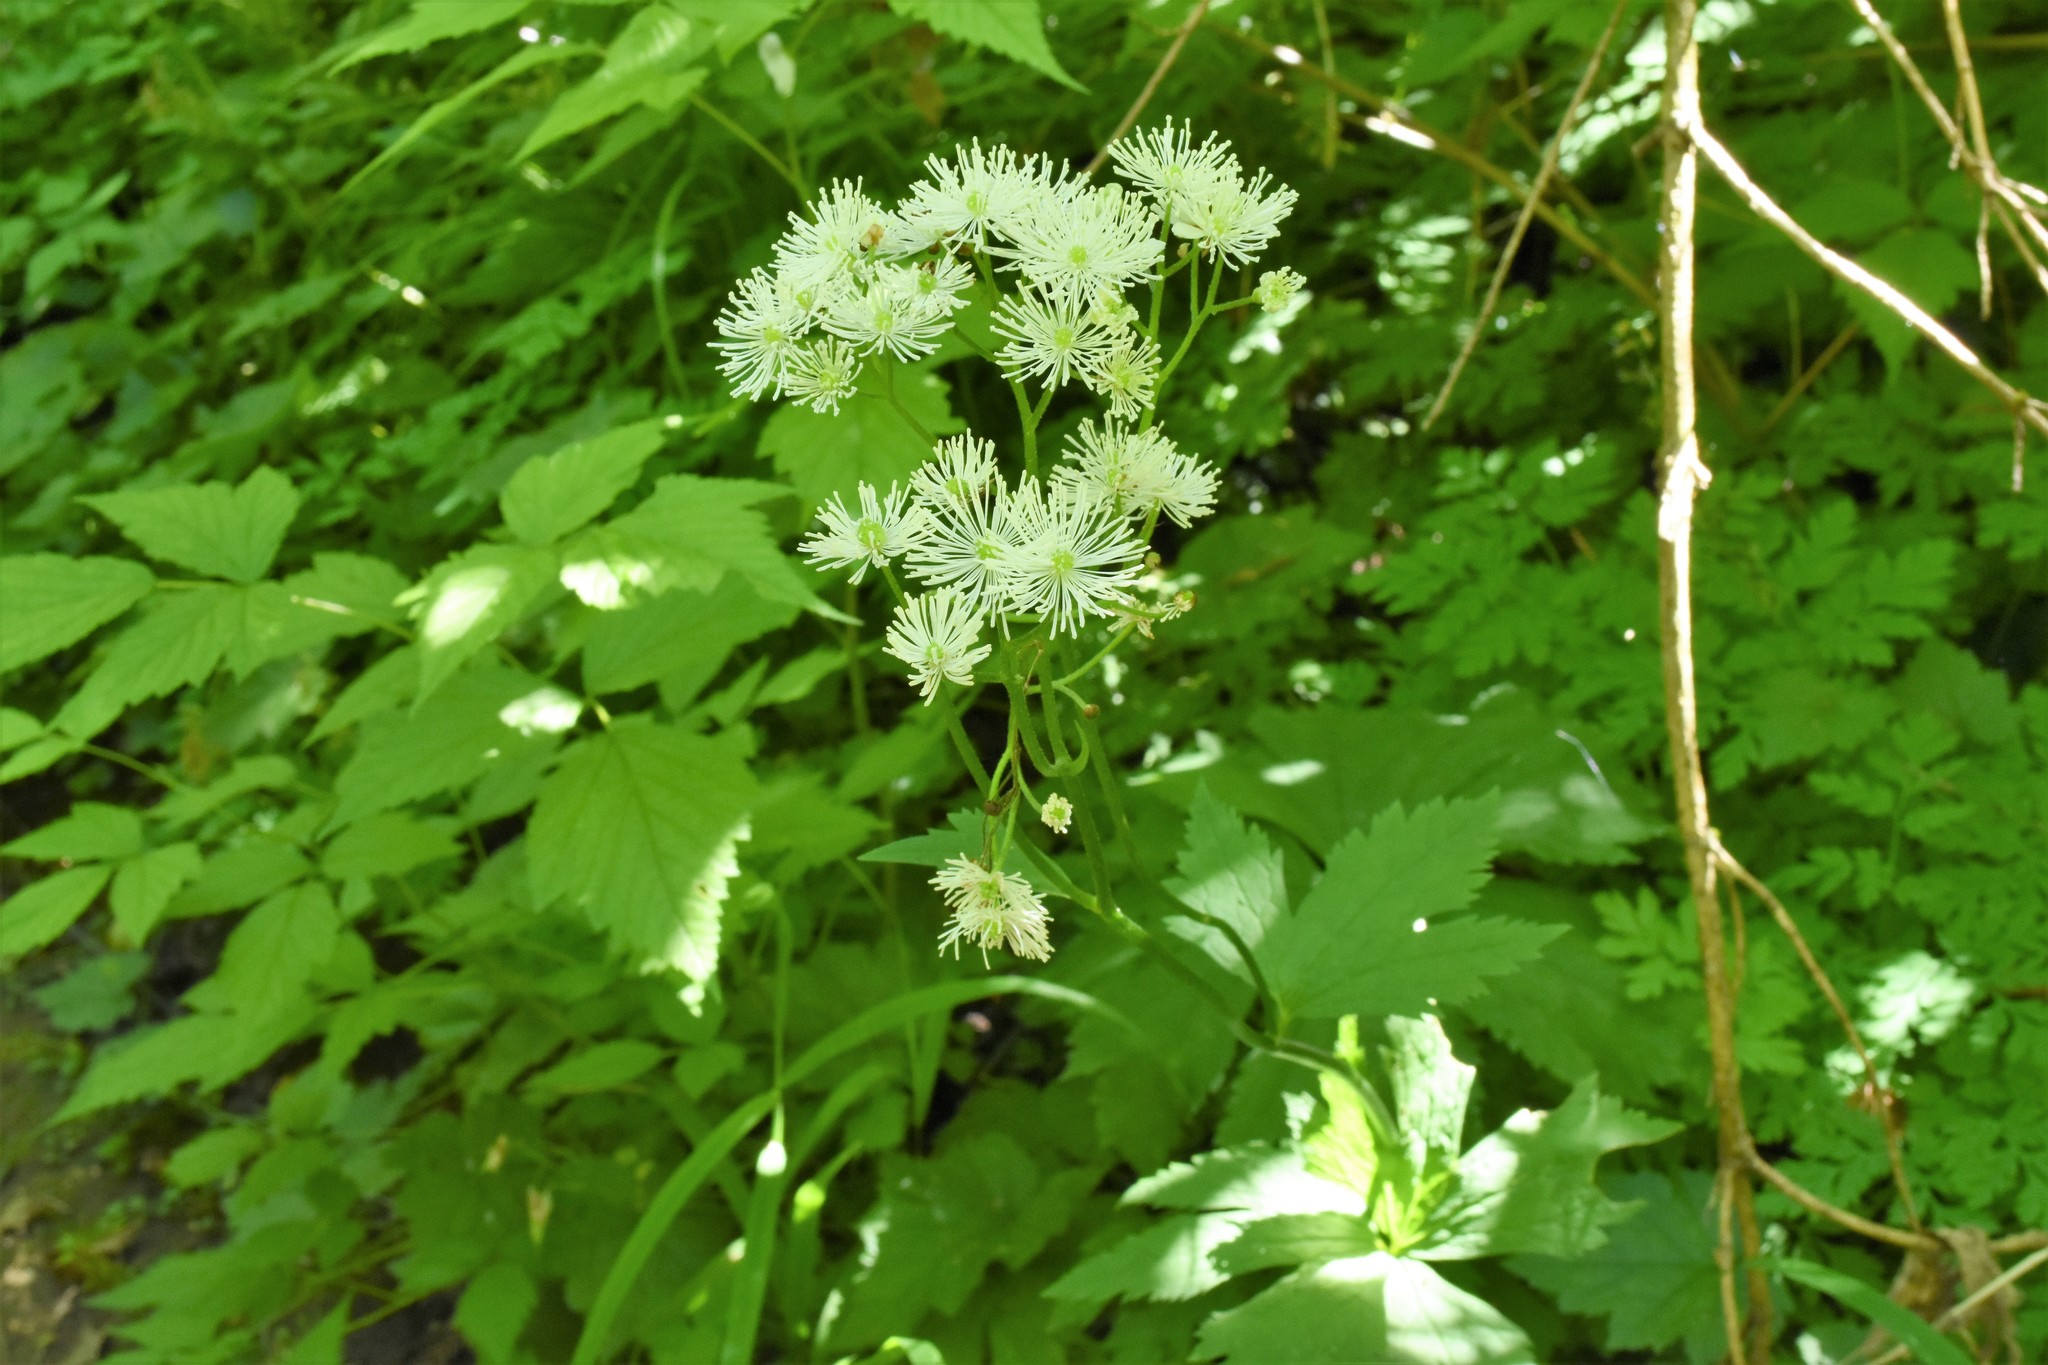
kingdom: Plantae
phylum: Tracheophyta
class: Magnoliopsida
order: Ranunculales
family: Ranunculaceae
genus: Trautvetteria
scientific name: Trautvetteria carolinensis
